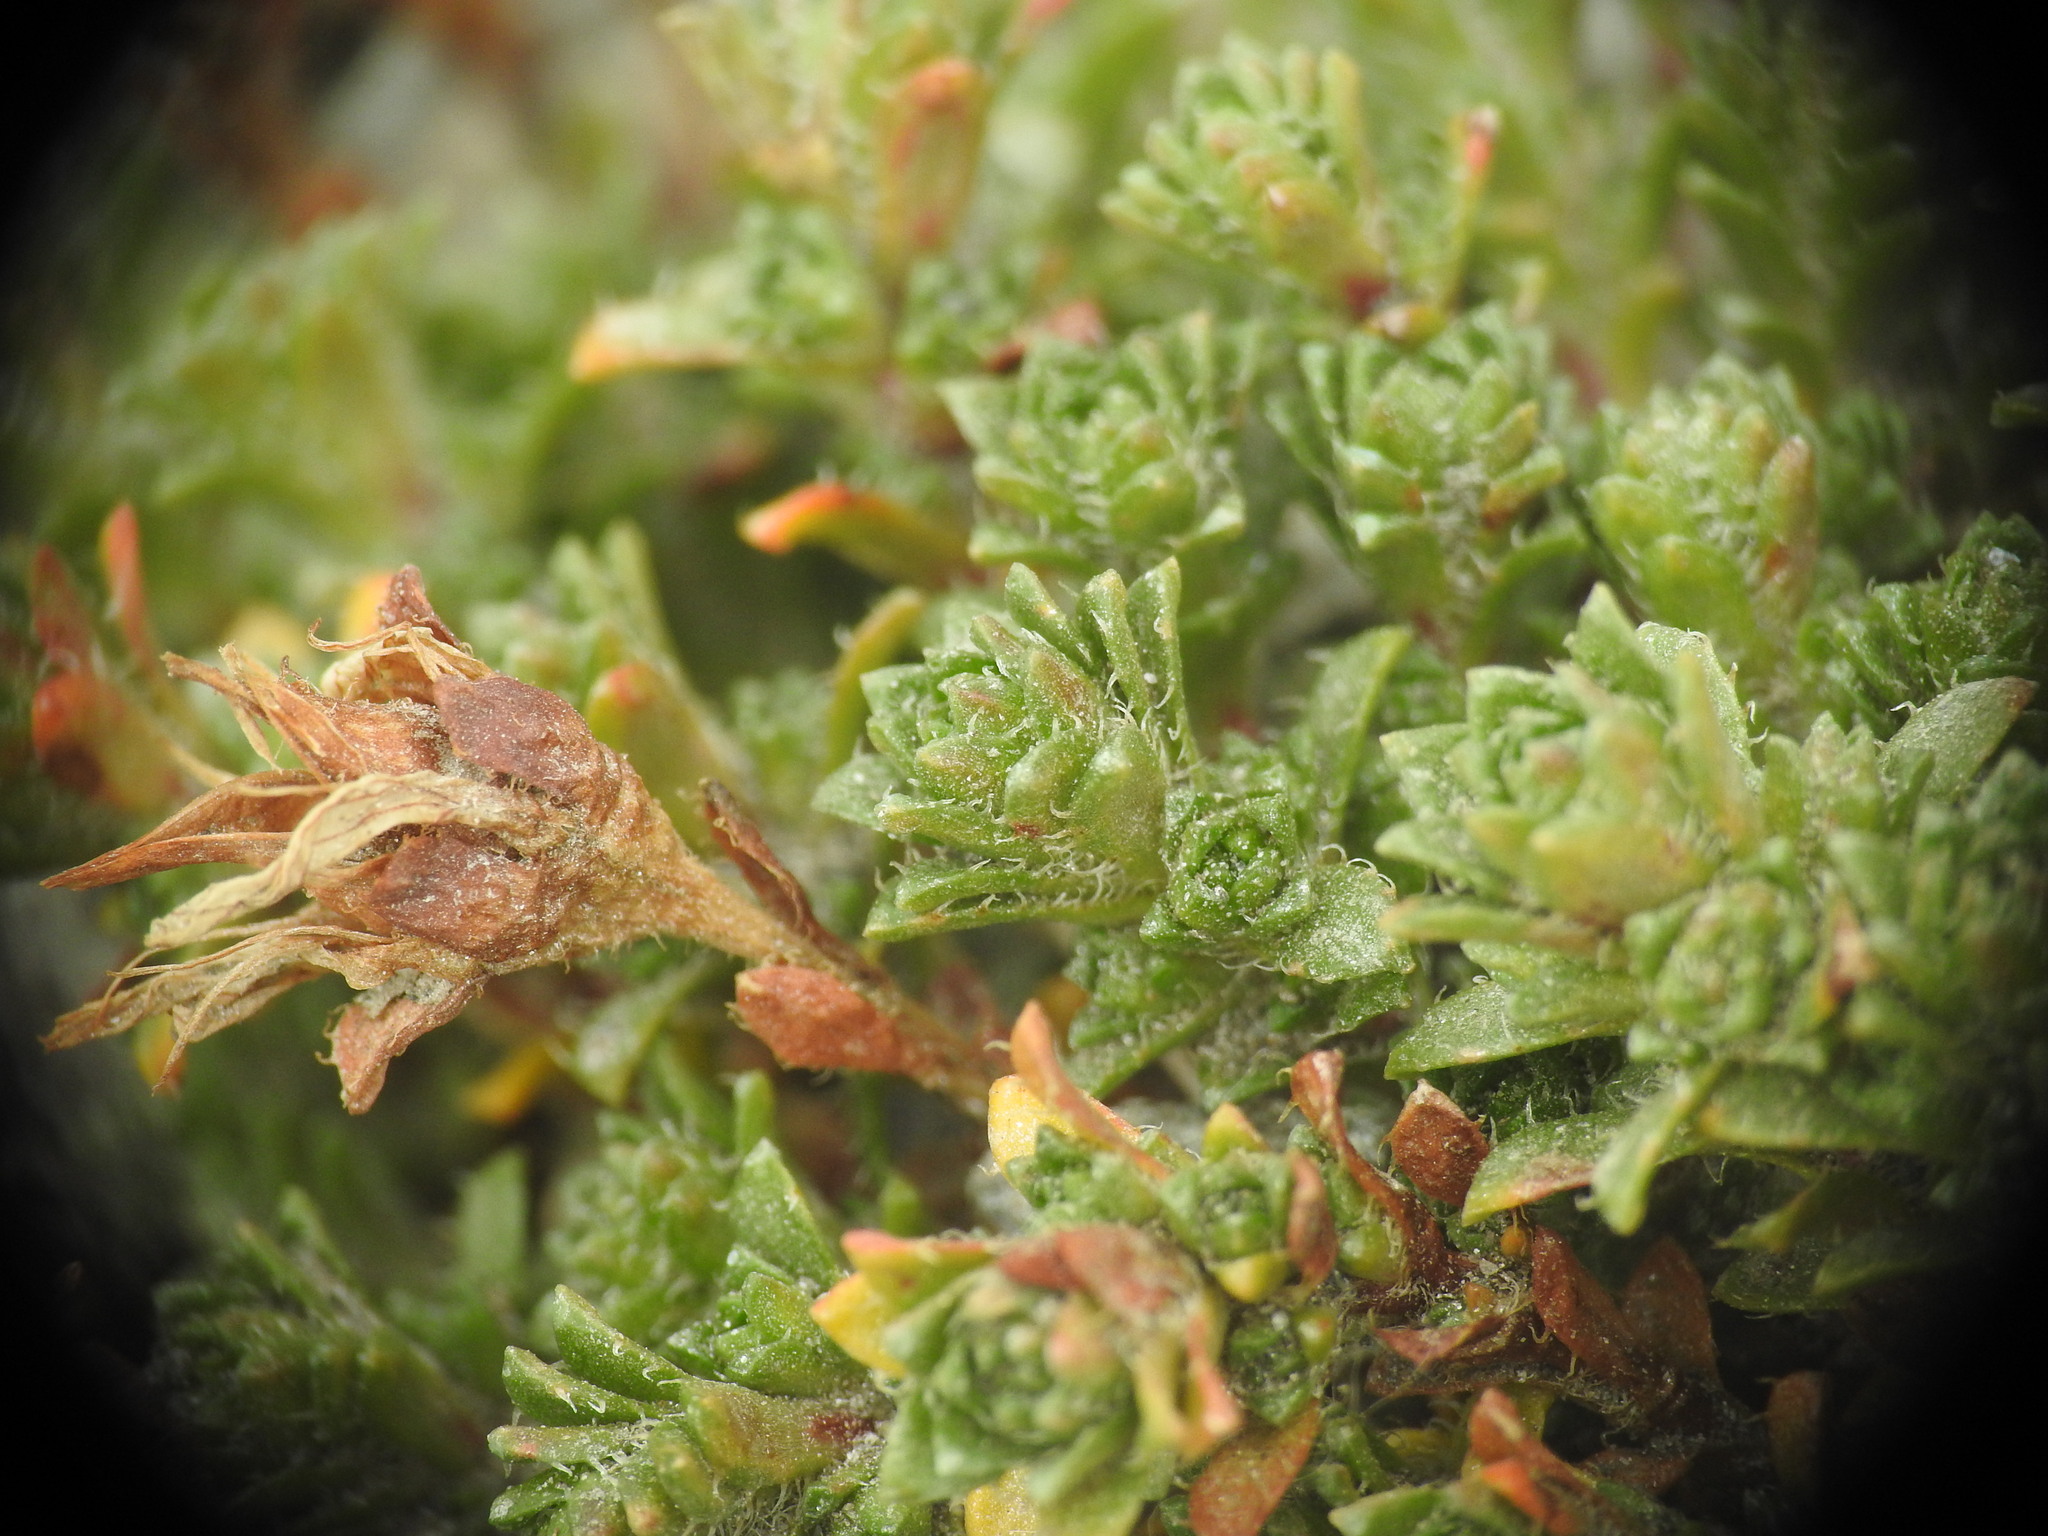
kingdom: Plantae
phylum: Tracheophyta
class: Magnoliopsida
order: Saxifragales
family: Saxifragaceae
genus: Saxifraga
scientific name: Saxifraga oppositifolia
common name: Purple saxifrage
